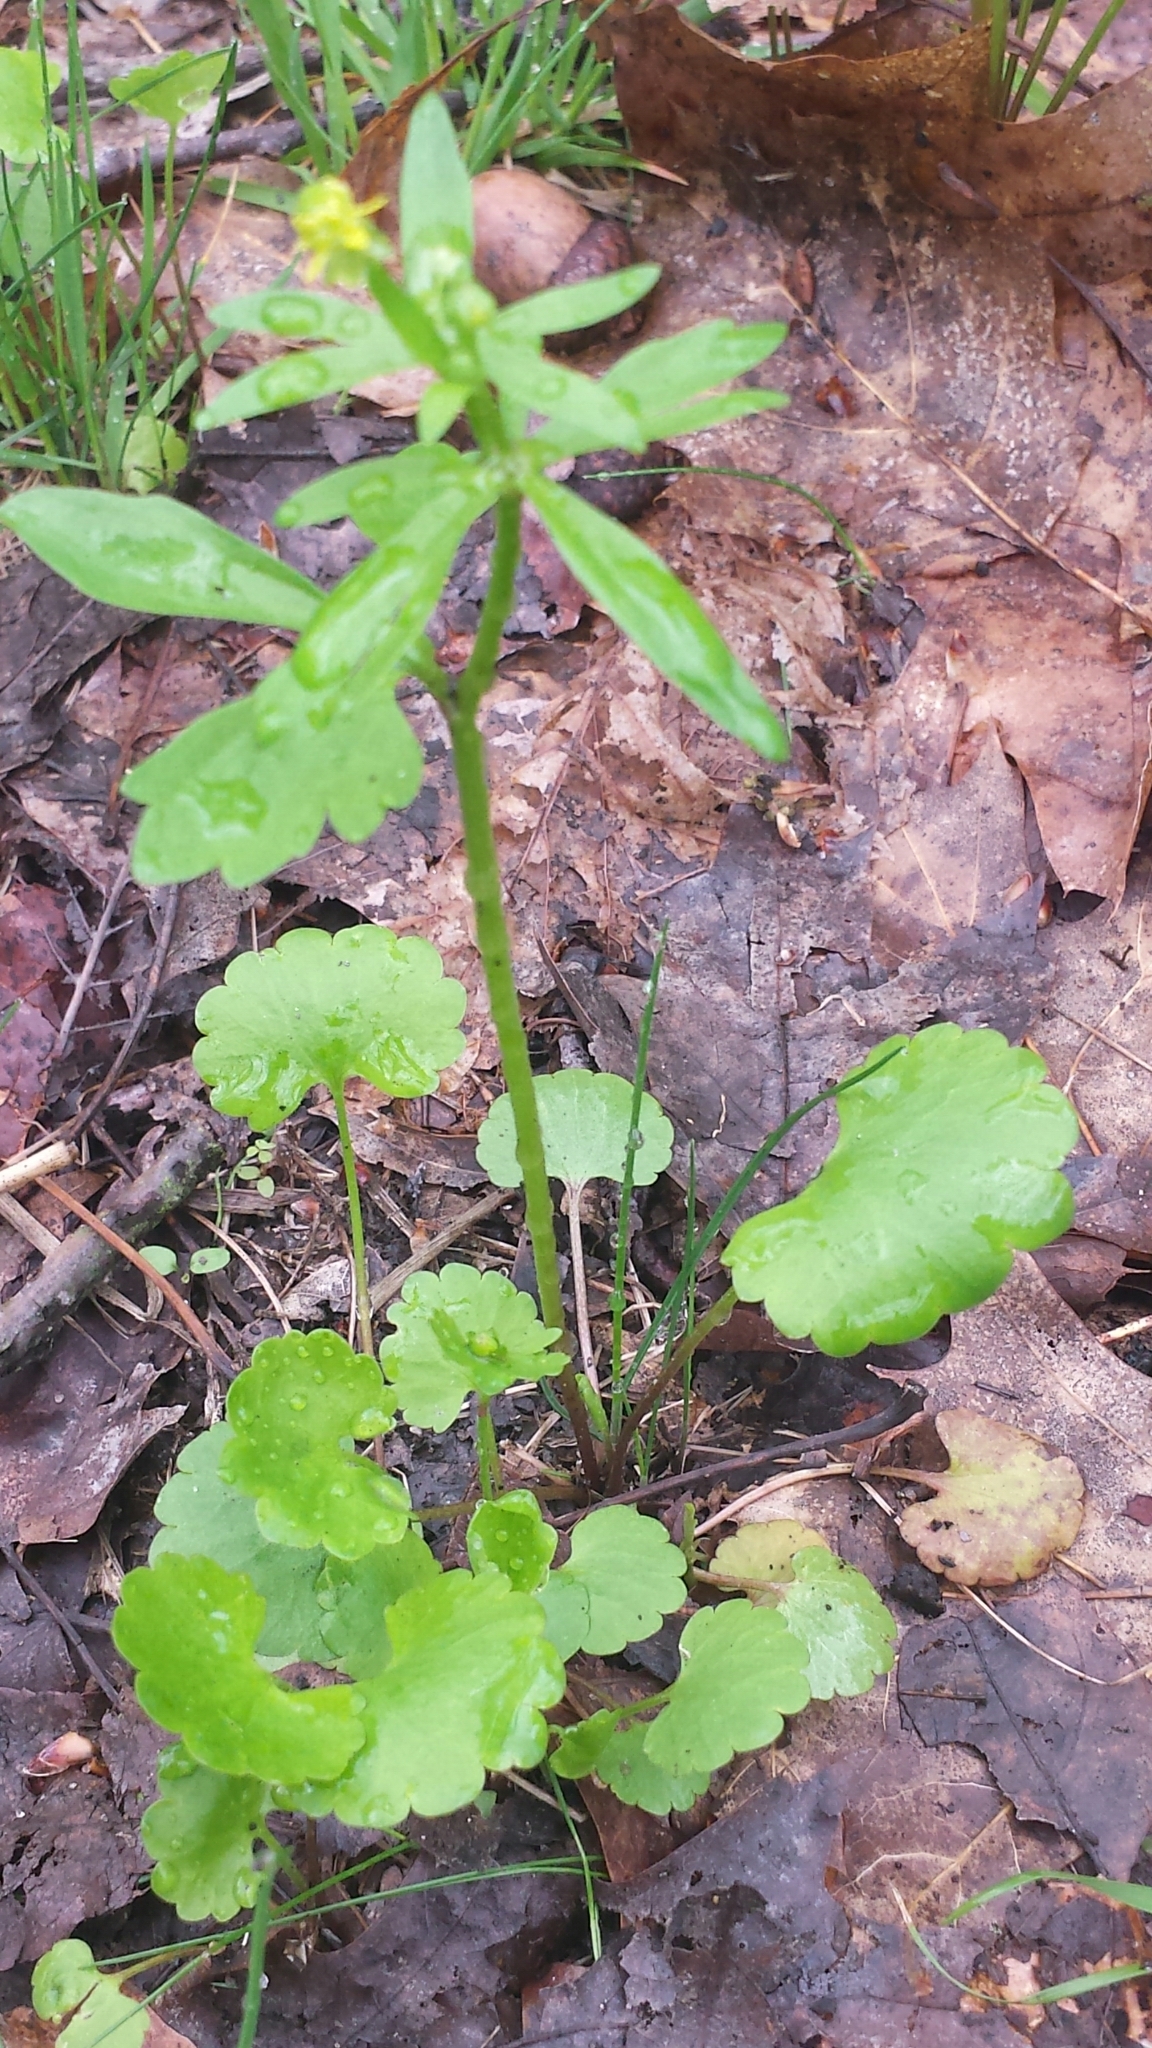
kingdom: Plantae
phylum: Tracheophyta
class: Magnoliopsida
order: Ranunculales
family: Ranunculaceae
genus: Ranunculus
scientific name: Ranunculus abortivus
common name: Early wood buttercup
